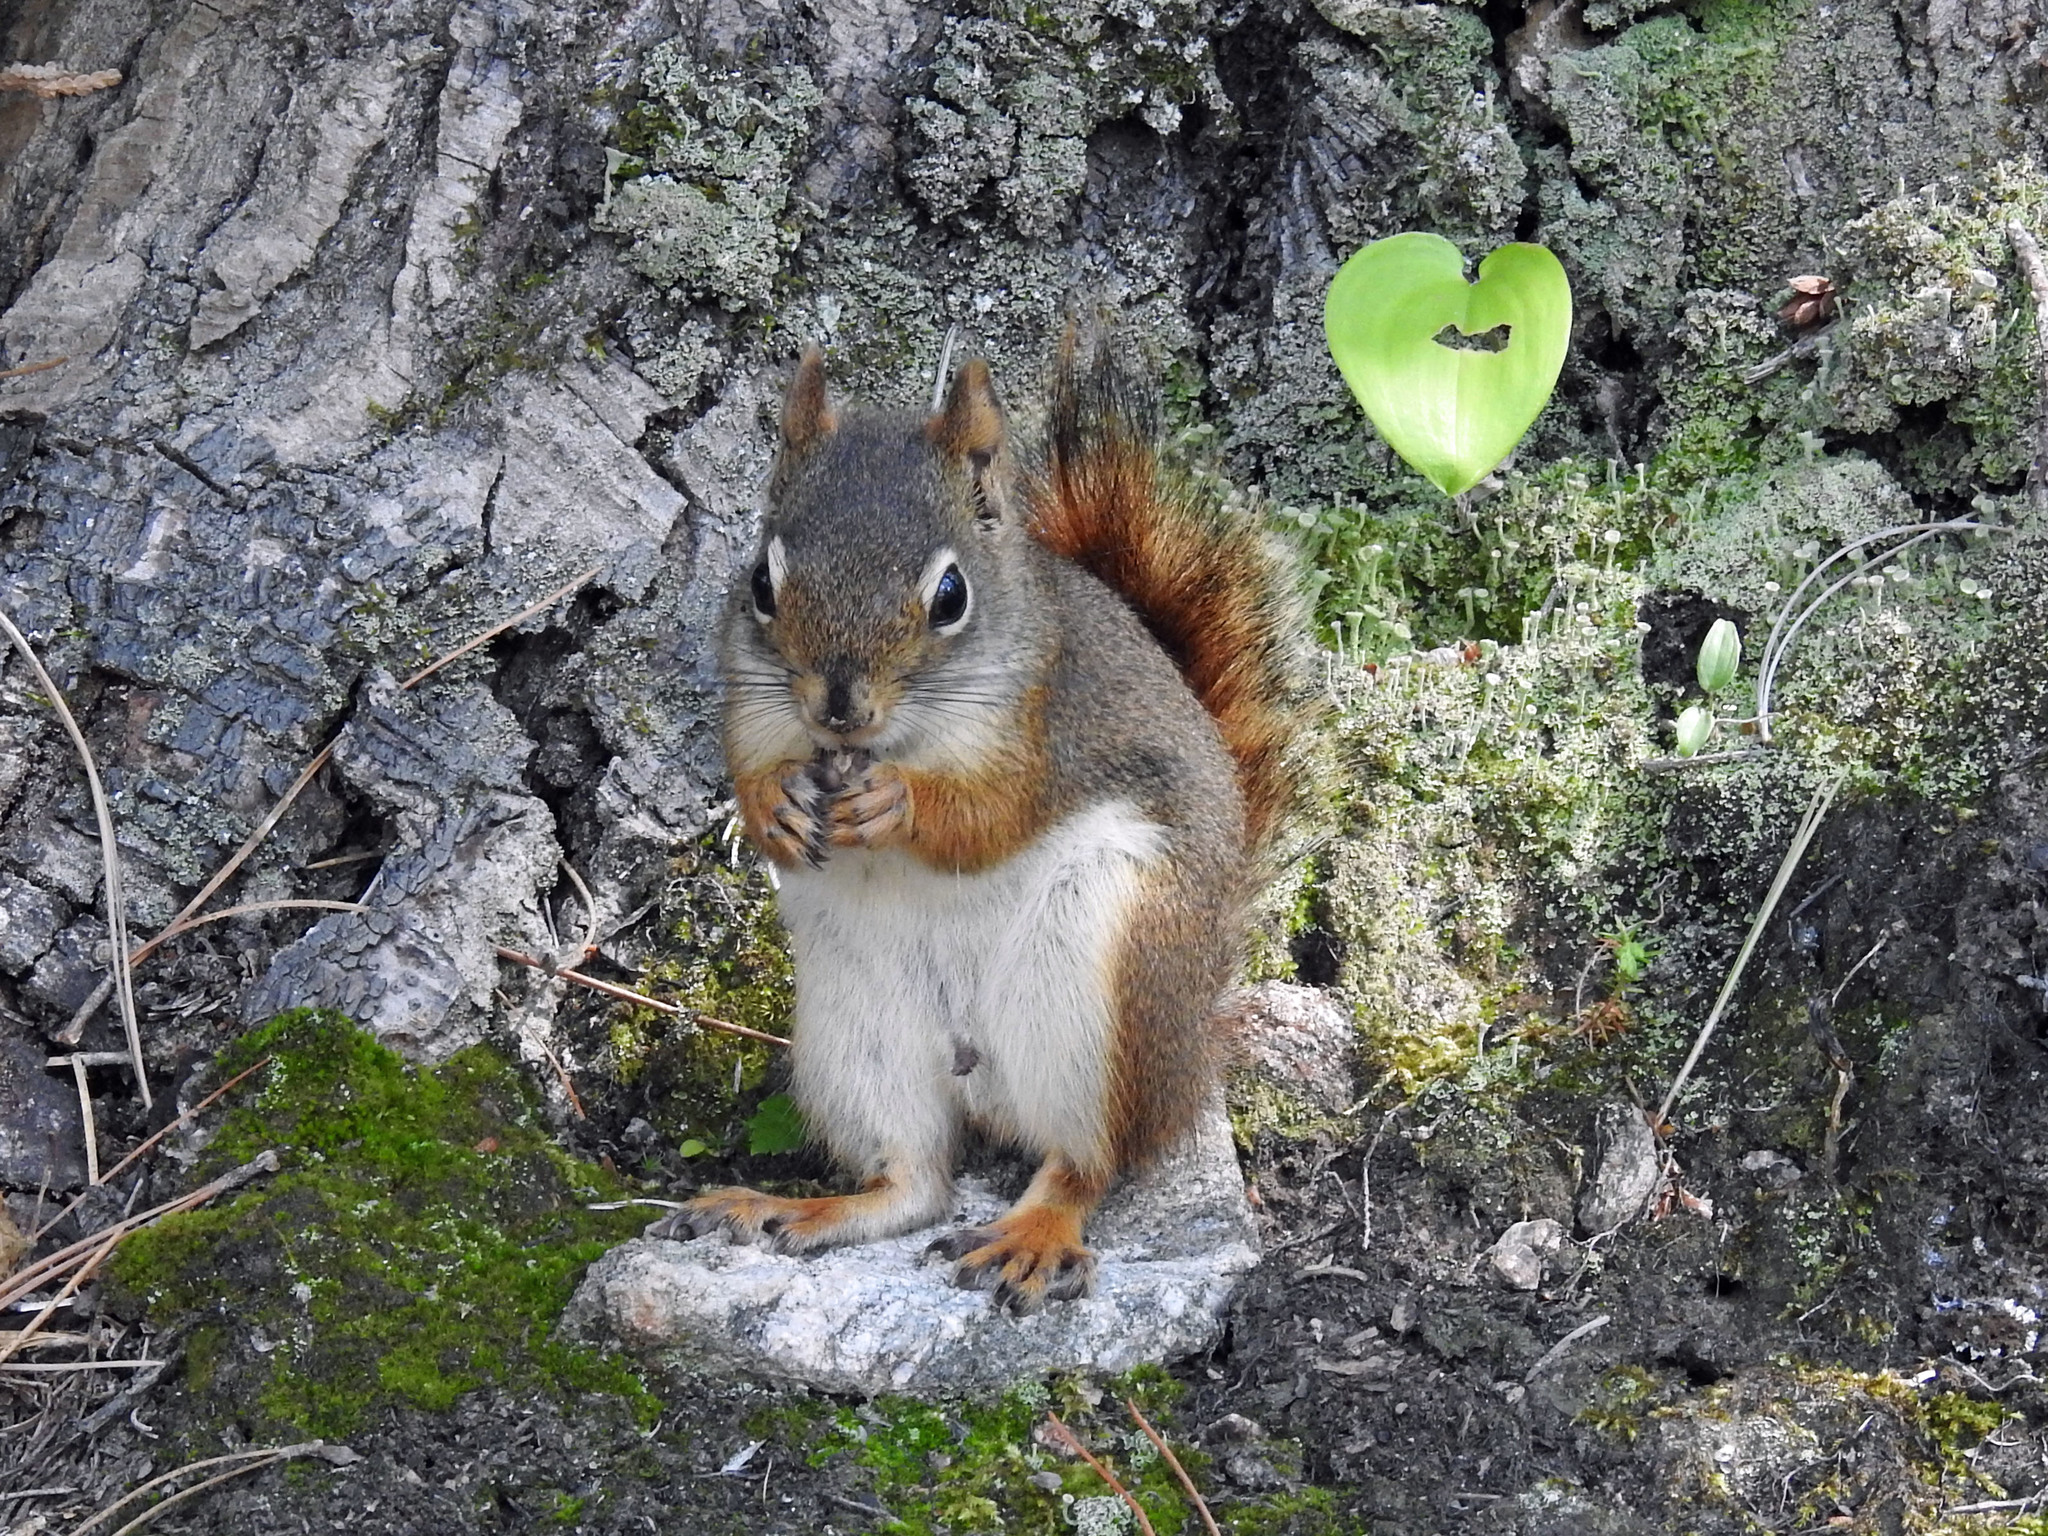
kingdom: Animalia
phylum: Chordata
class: Mammalia
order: Rodentia
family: Sciuridae
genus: Tamiasciurus
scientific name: Tamiasciurus hudsonicus
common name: Red squirrel
